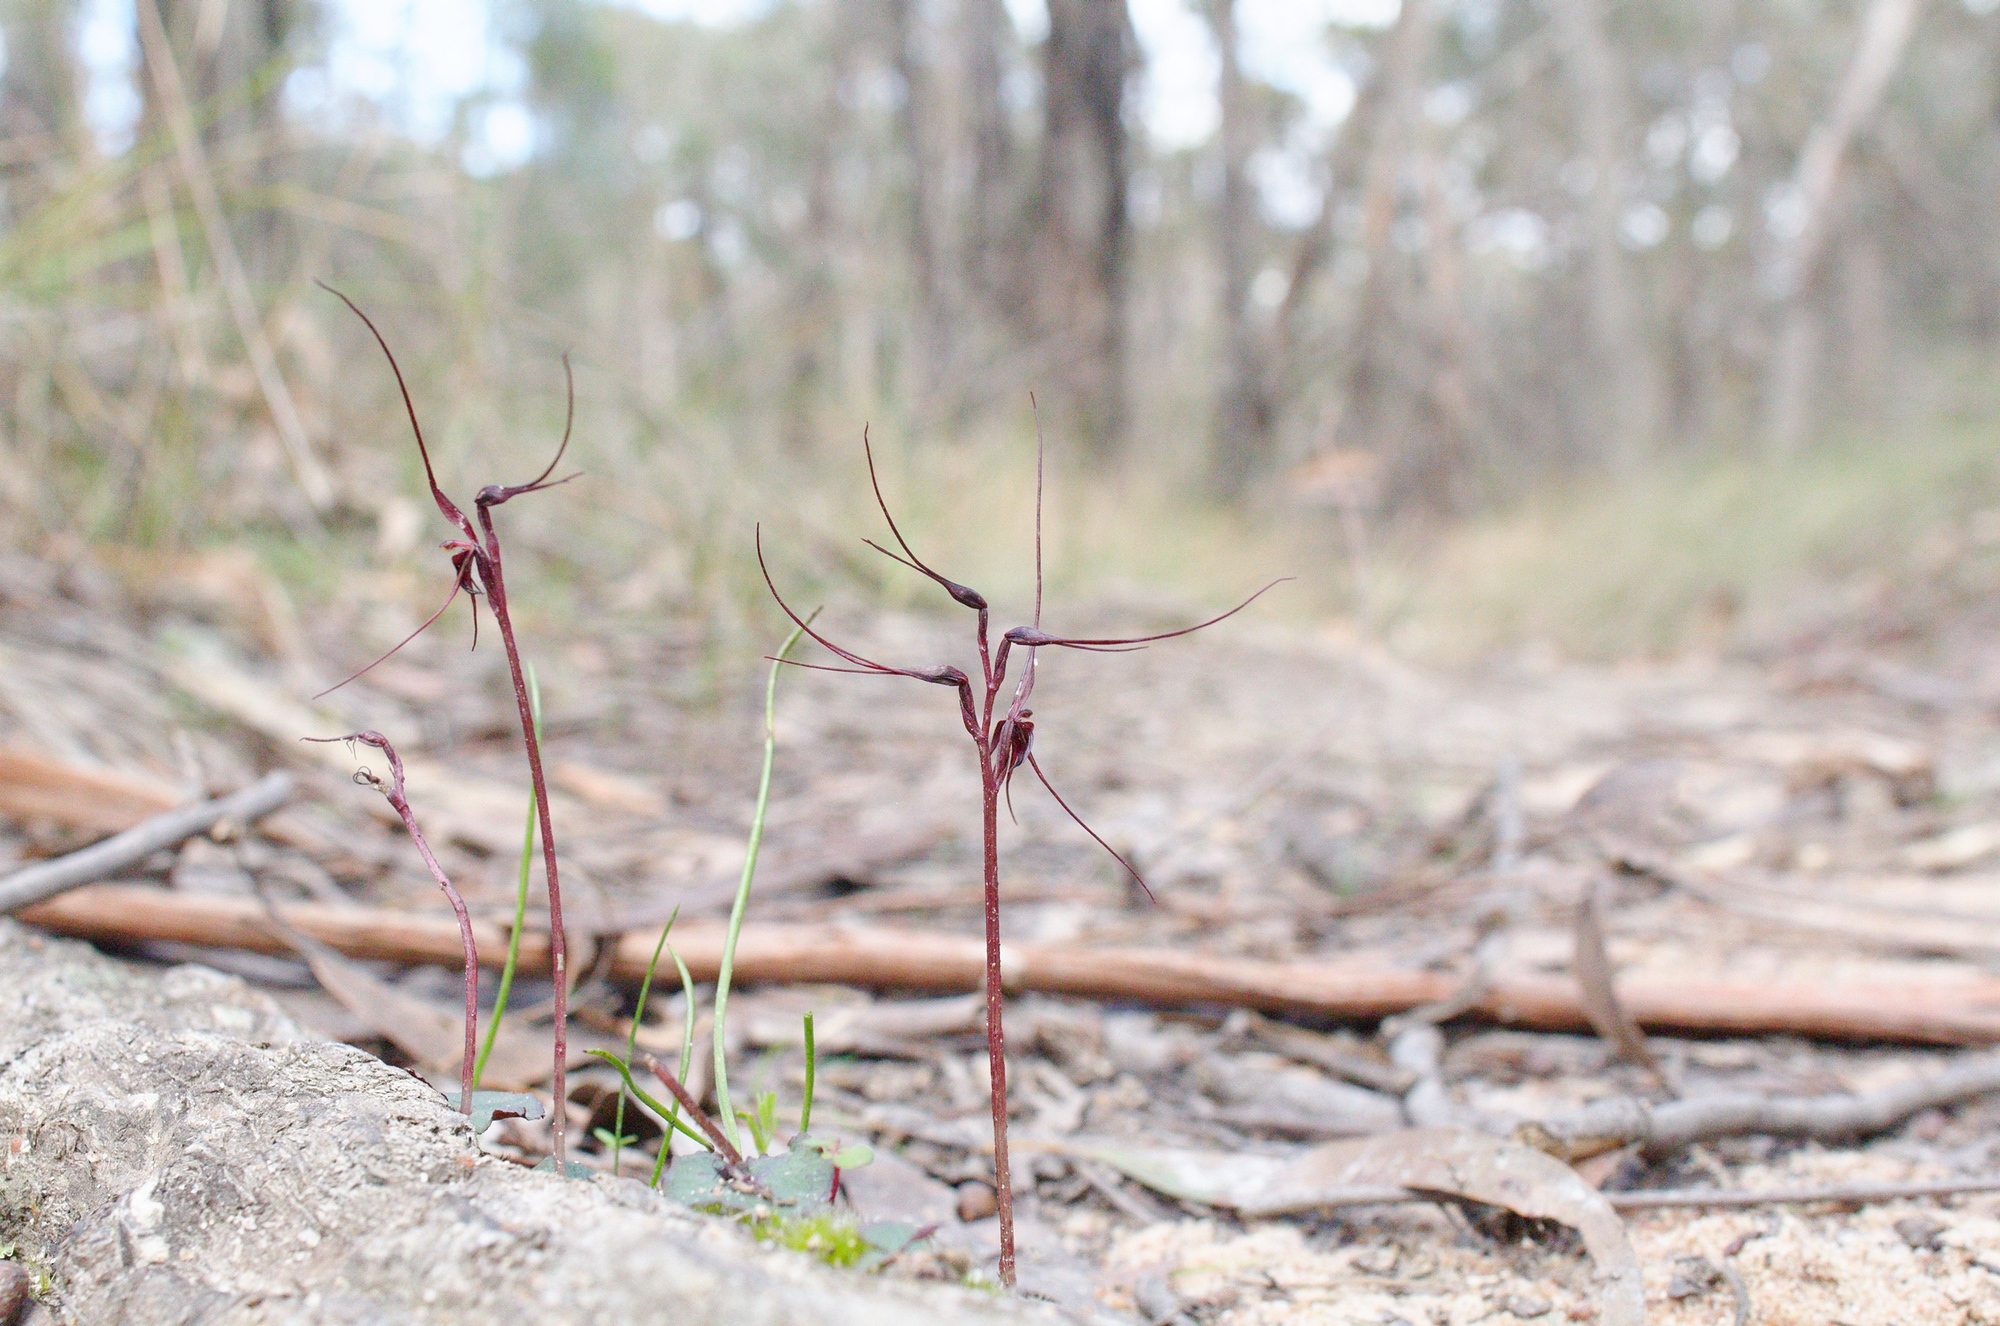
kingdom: Plantae
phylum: Tracheophyta
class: Liliopsida
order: Asparagales
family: Orchidaceae
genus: Acianthus
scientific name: Acianthus caudatus
